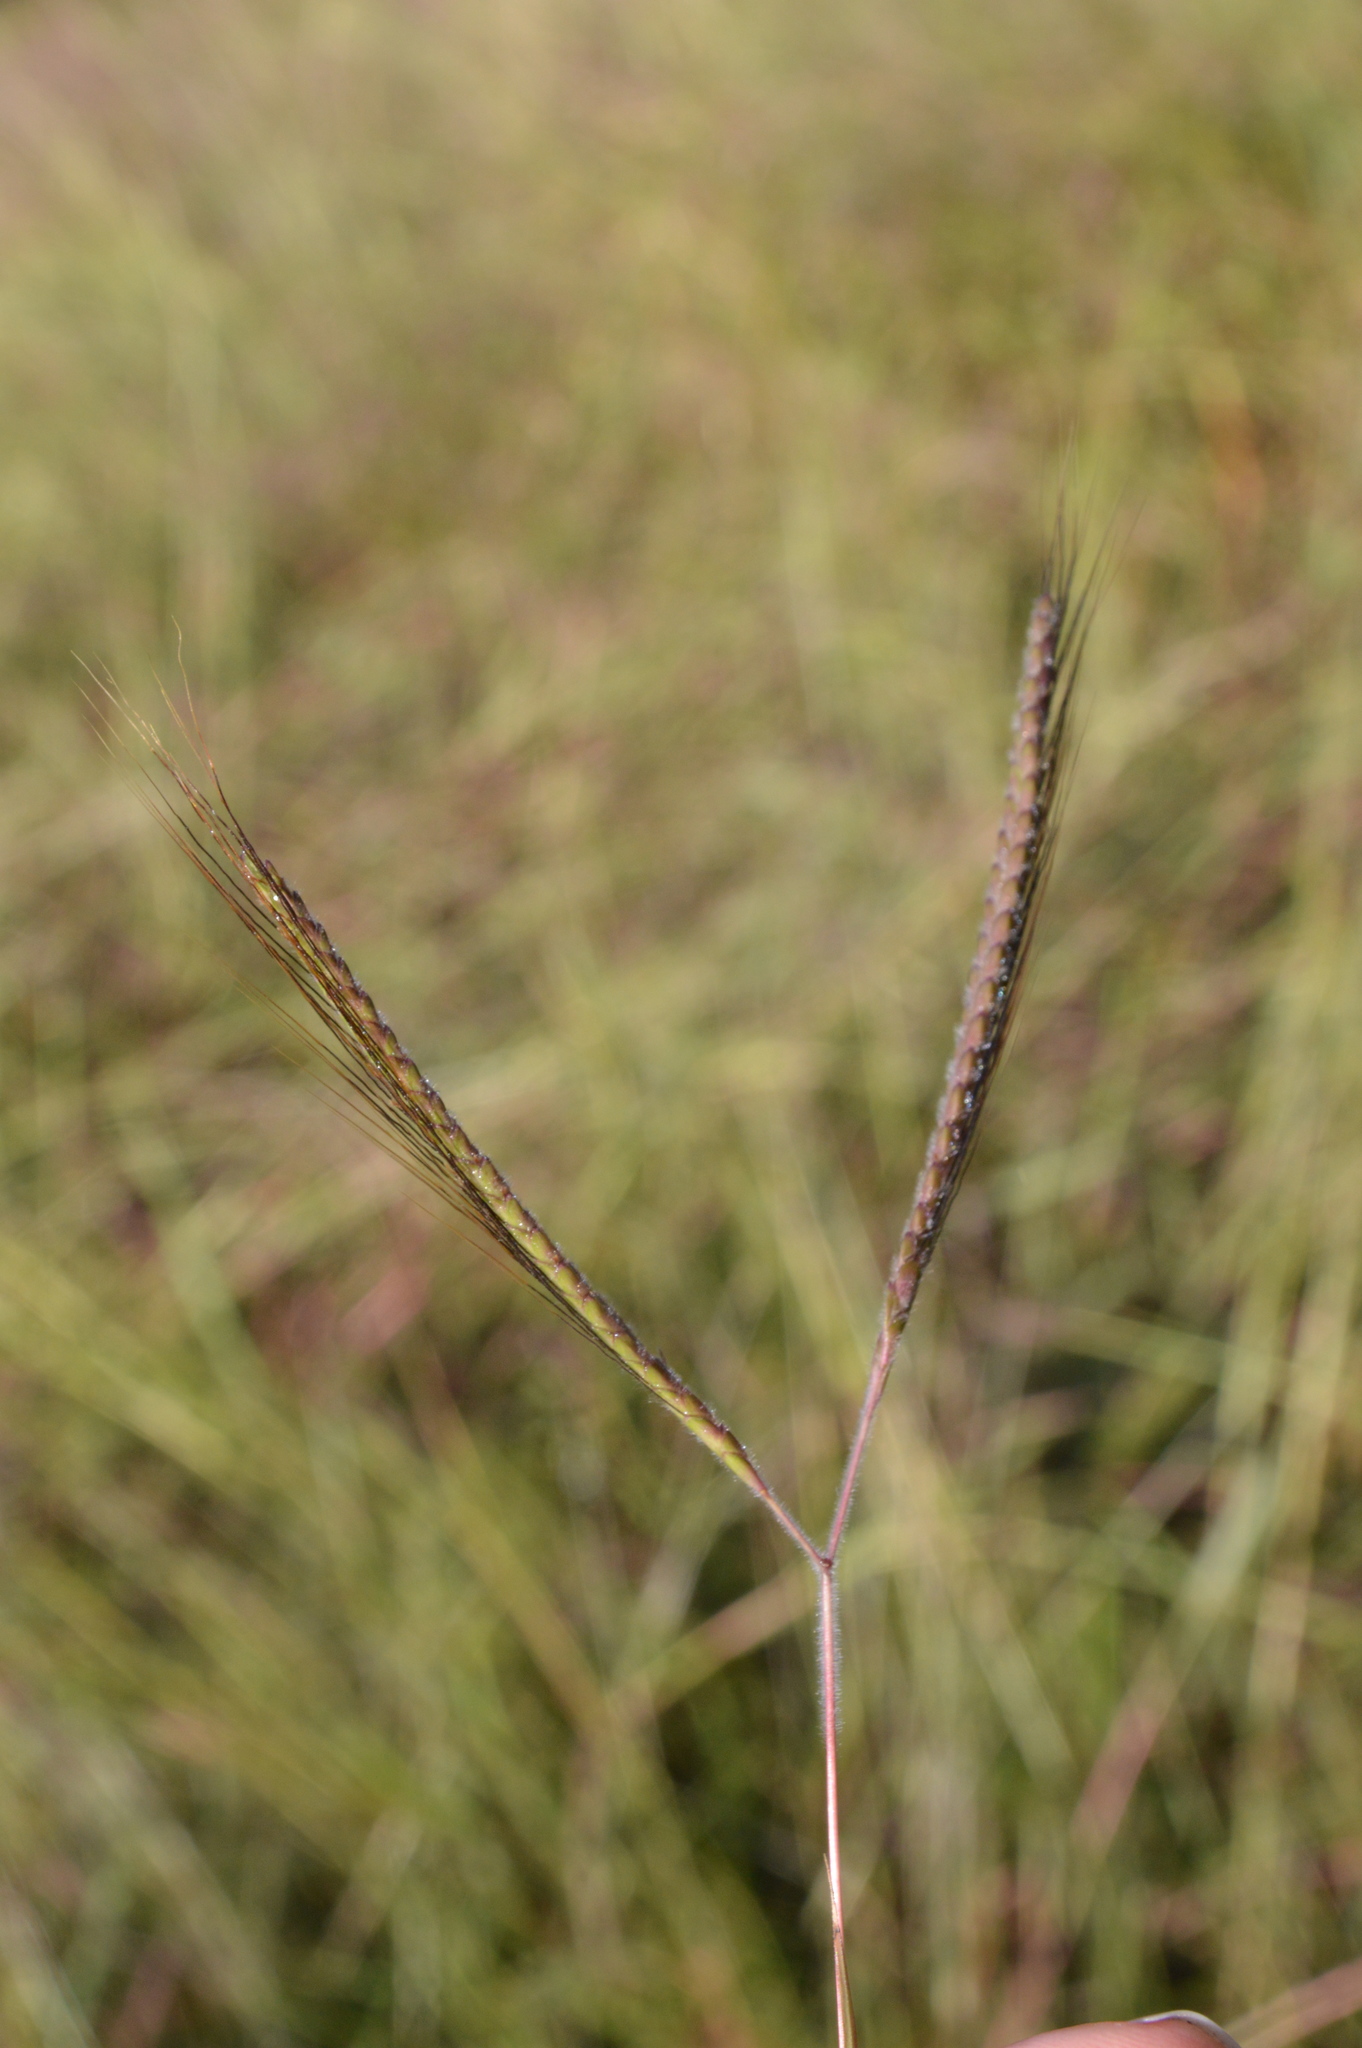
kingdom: Plantae
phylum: Tracheophyta
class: Liliopsida
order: Poales
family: Poaceae
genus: Dichanthium
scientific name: Dichanthium aristatum
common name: Angleton bluestem
